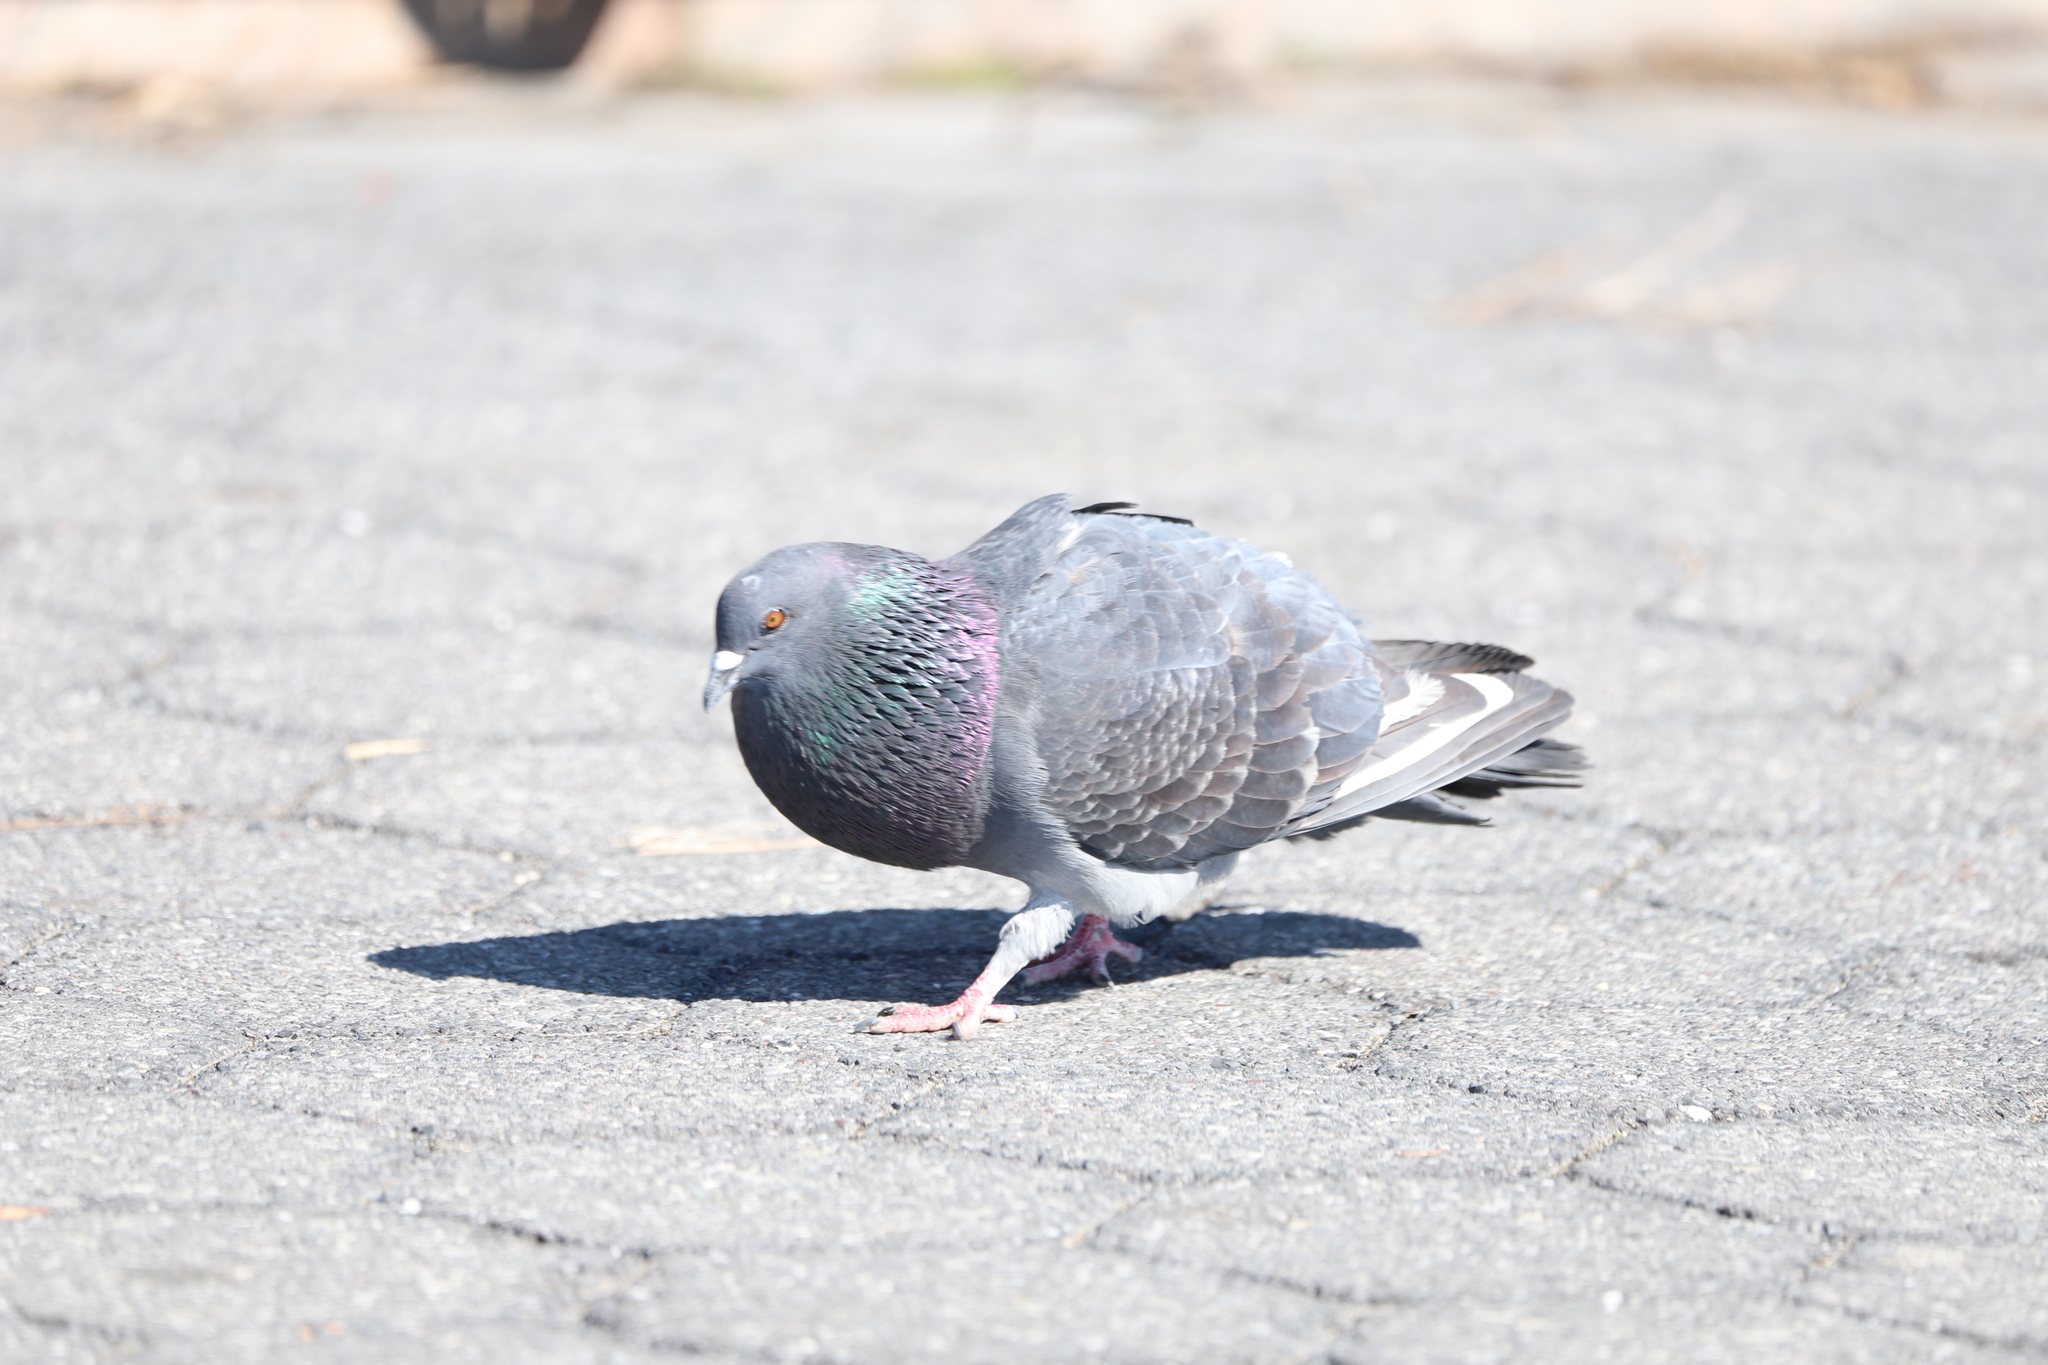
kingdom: Animalia
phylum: Chordata
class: Aves
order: Columbiformes
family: Columbidae
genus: Columba
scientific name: Columba livia
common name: Rock pigeon
